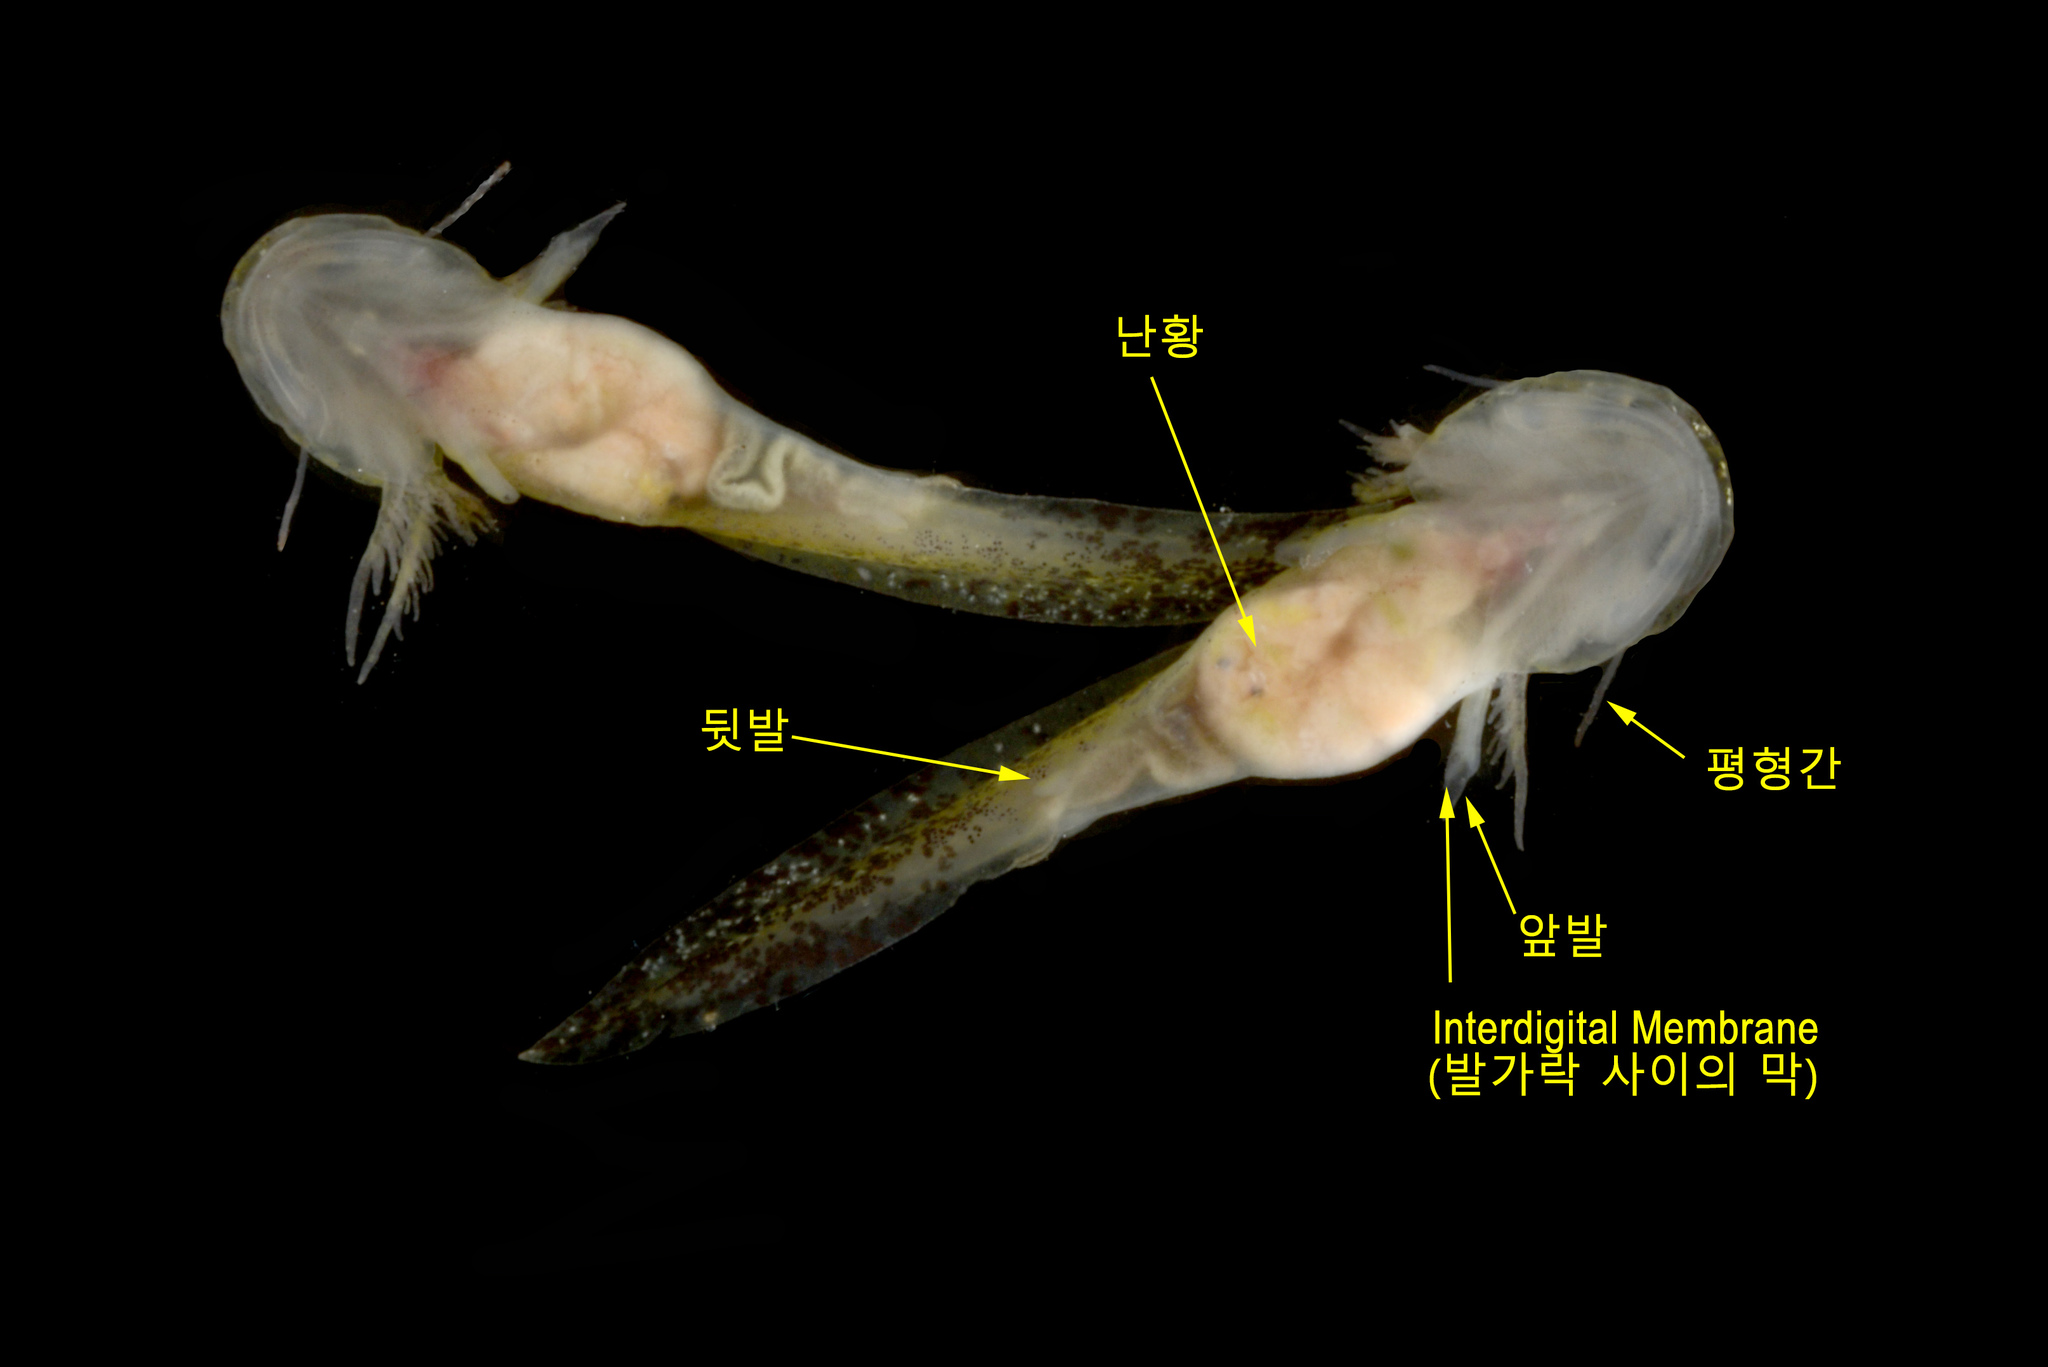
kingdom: Animalia
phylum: Chordata
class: Amphibia
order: Caudata
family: Hynobiidae
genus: Hynobius
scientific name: Hynobius leechii
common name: Gensan salamander
